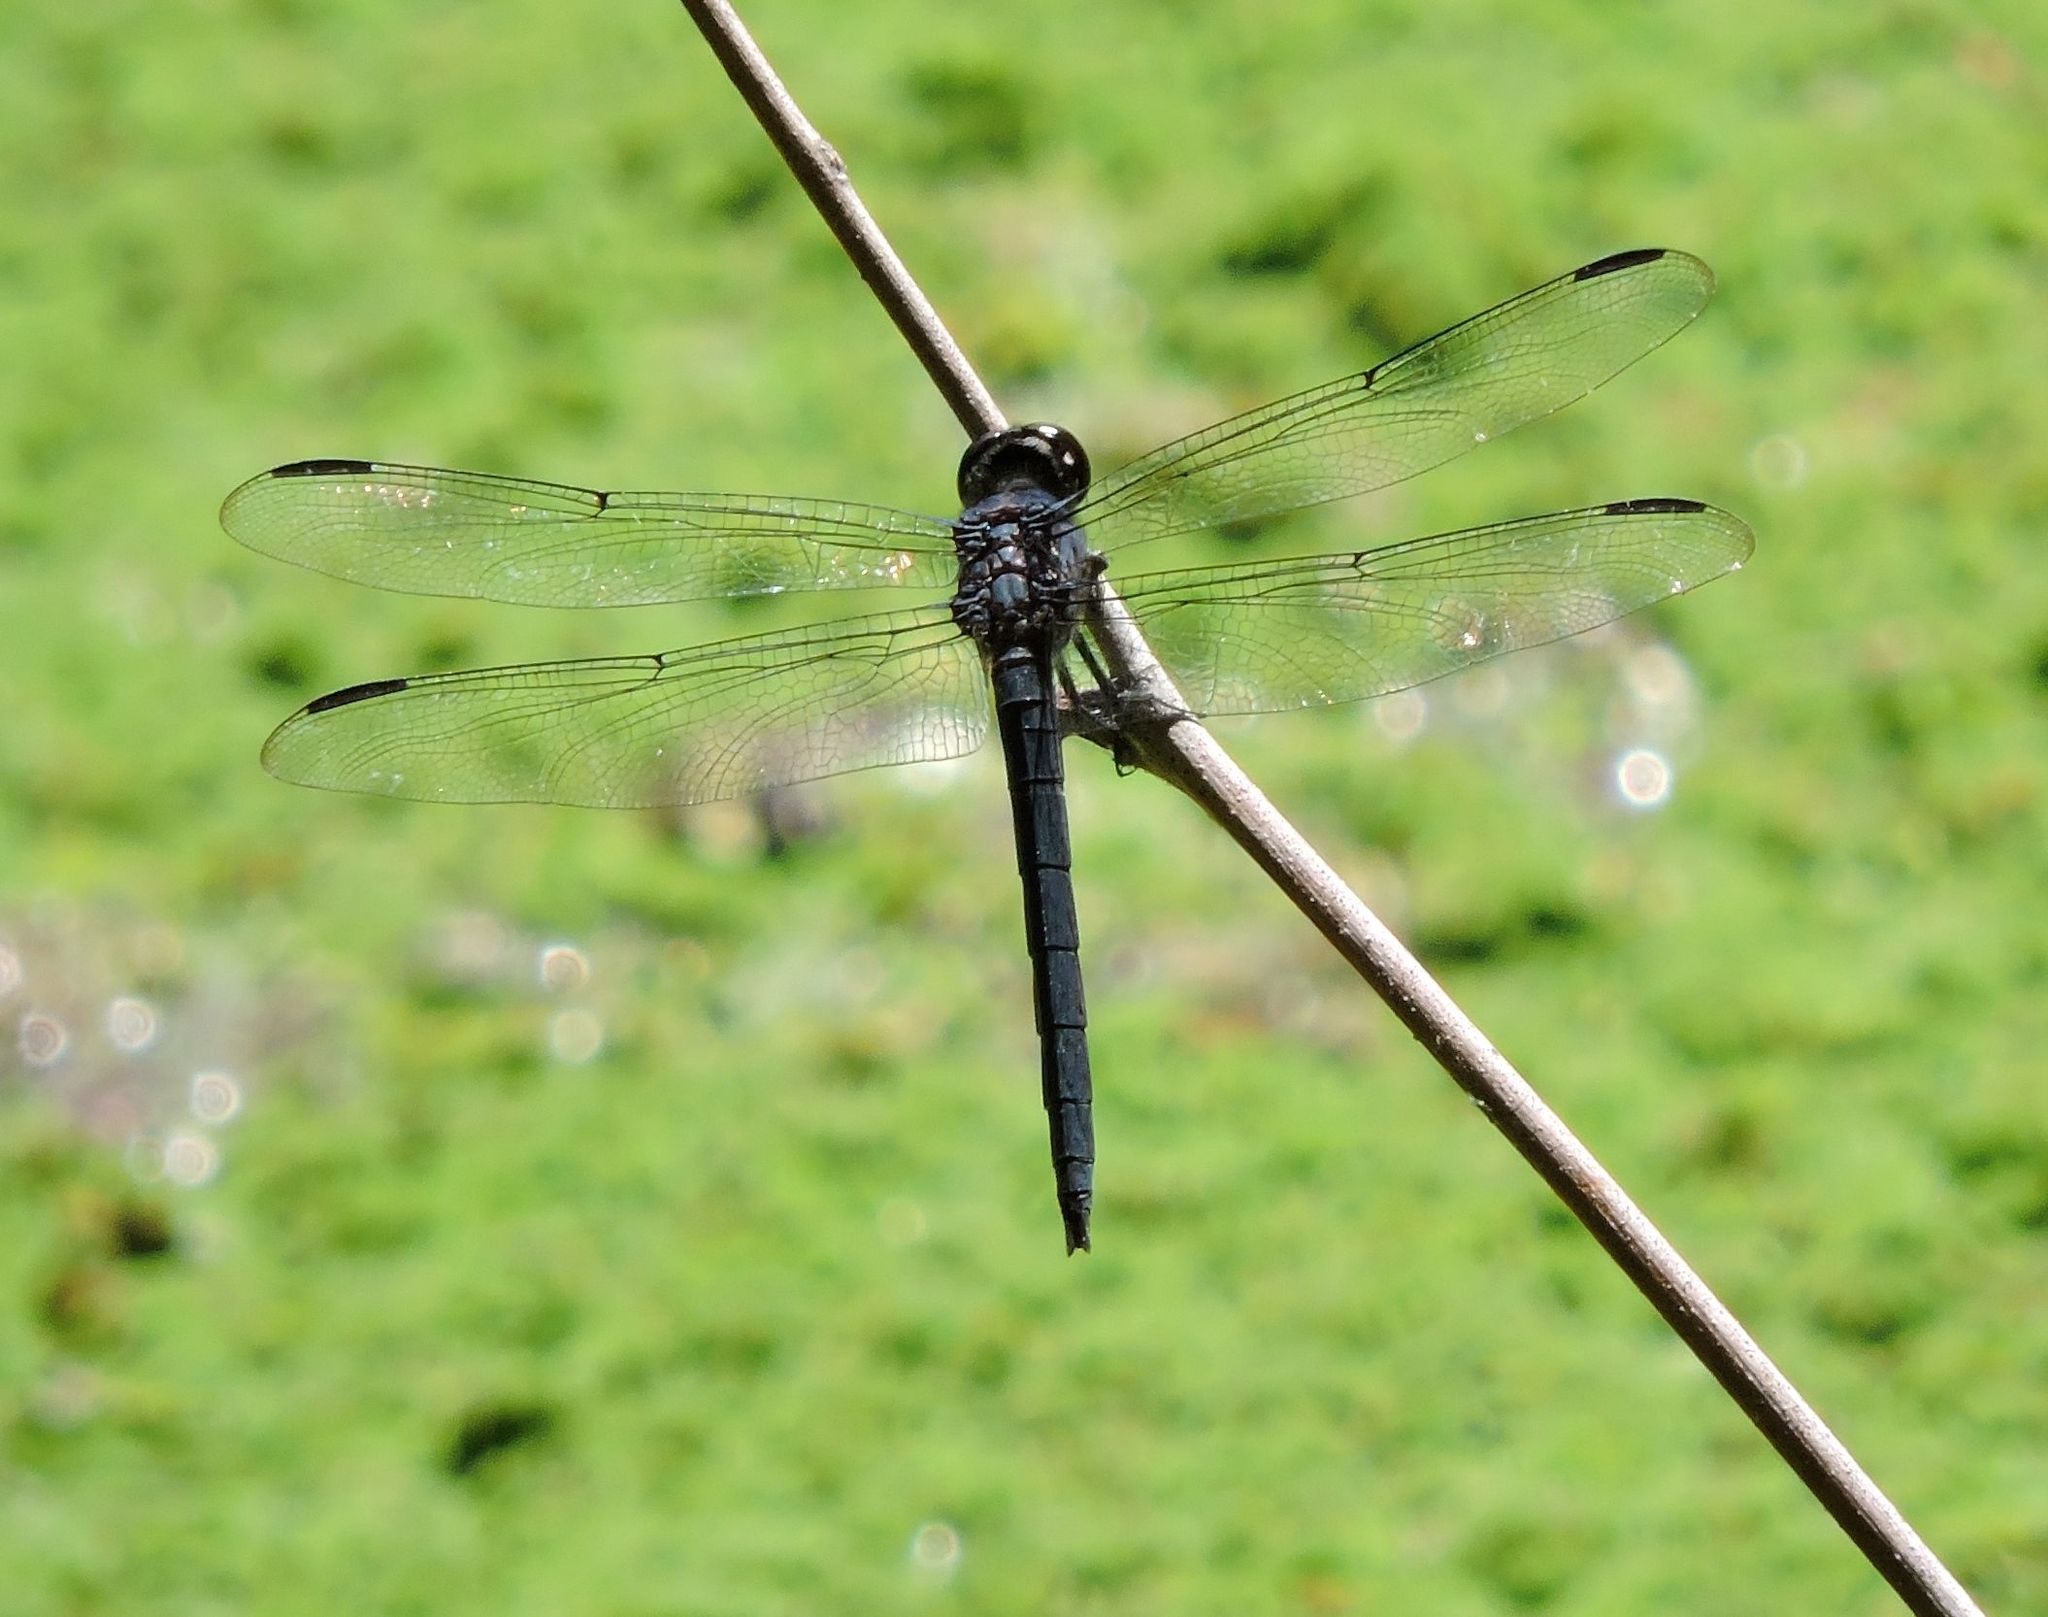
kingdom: Animalia
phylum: Arthropoda
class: Insecta
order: Odonata
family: Libellulidae
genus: Libellula
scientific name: Libellula incesta
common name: Slaty skimmer
